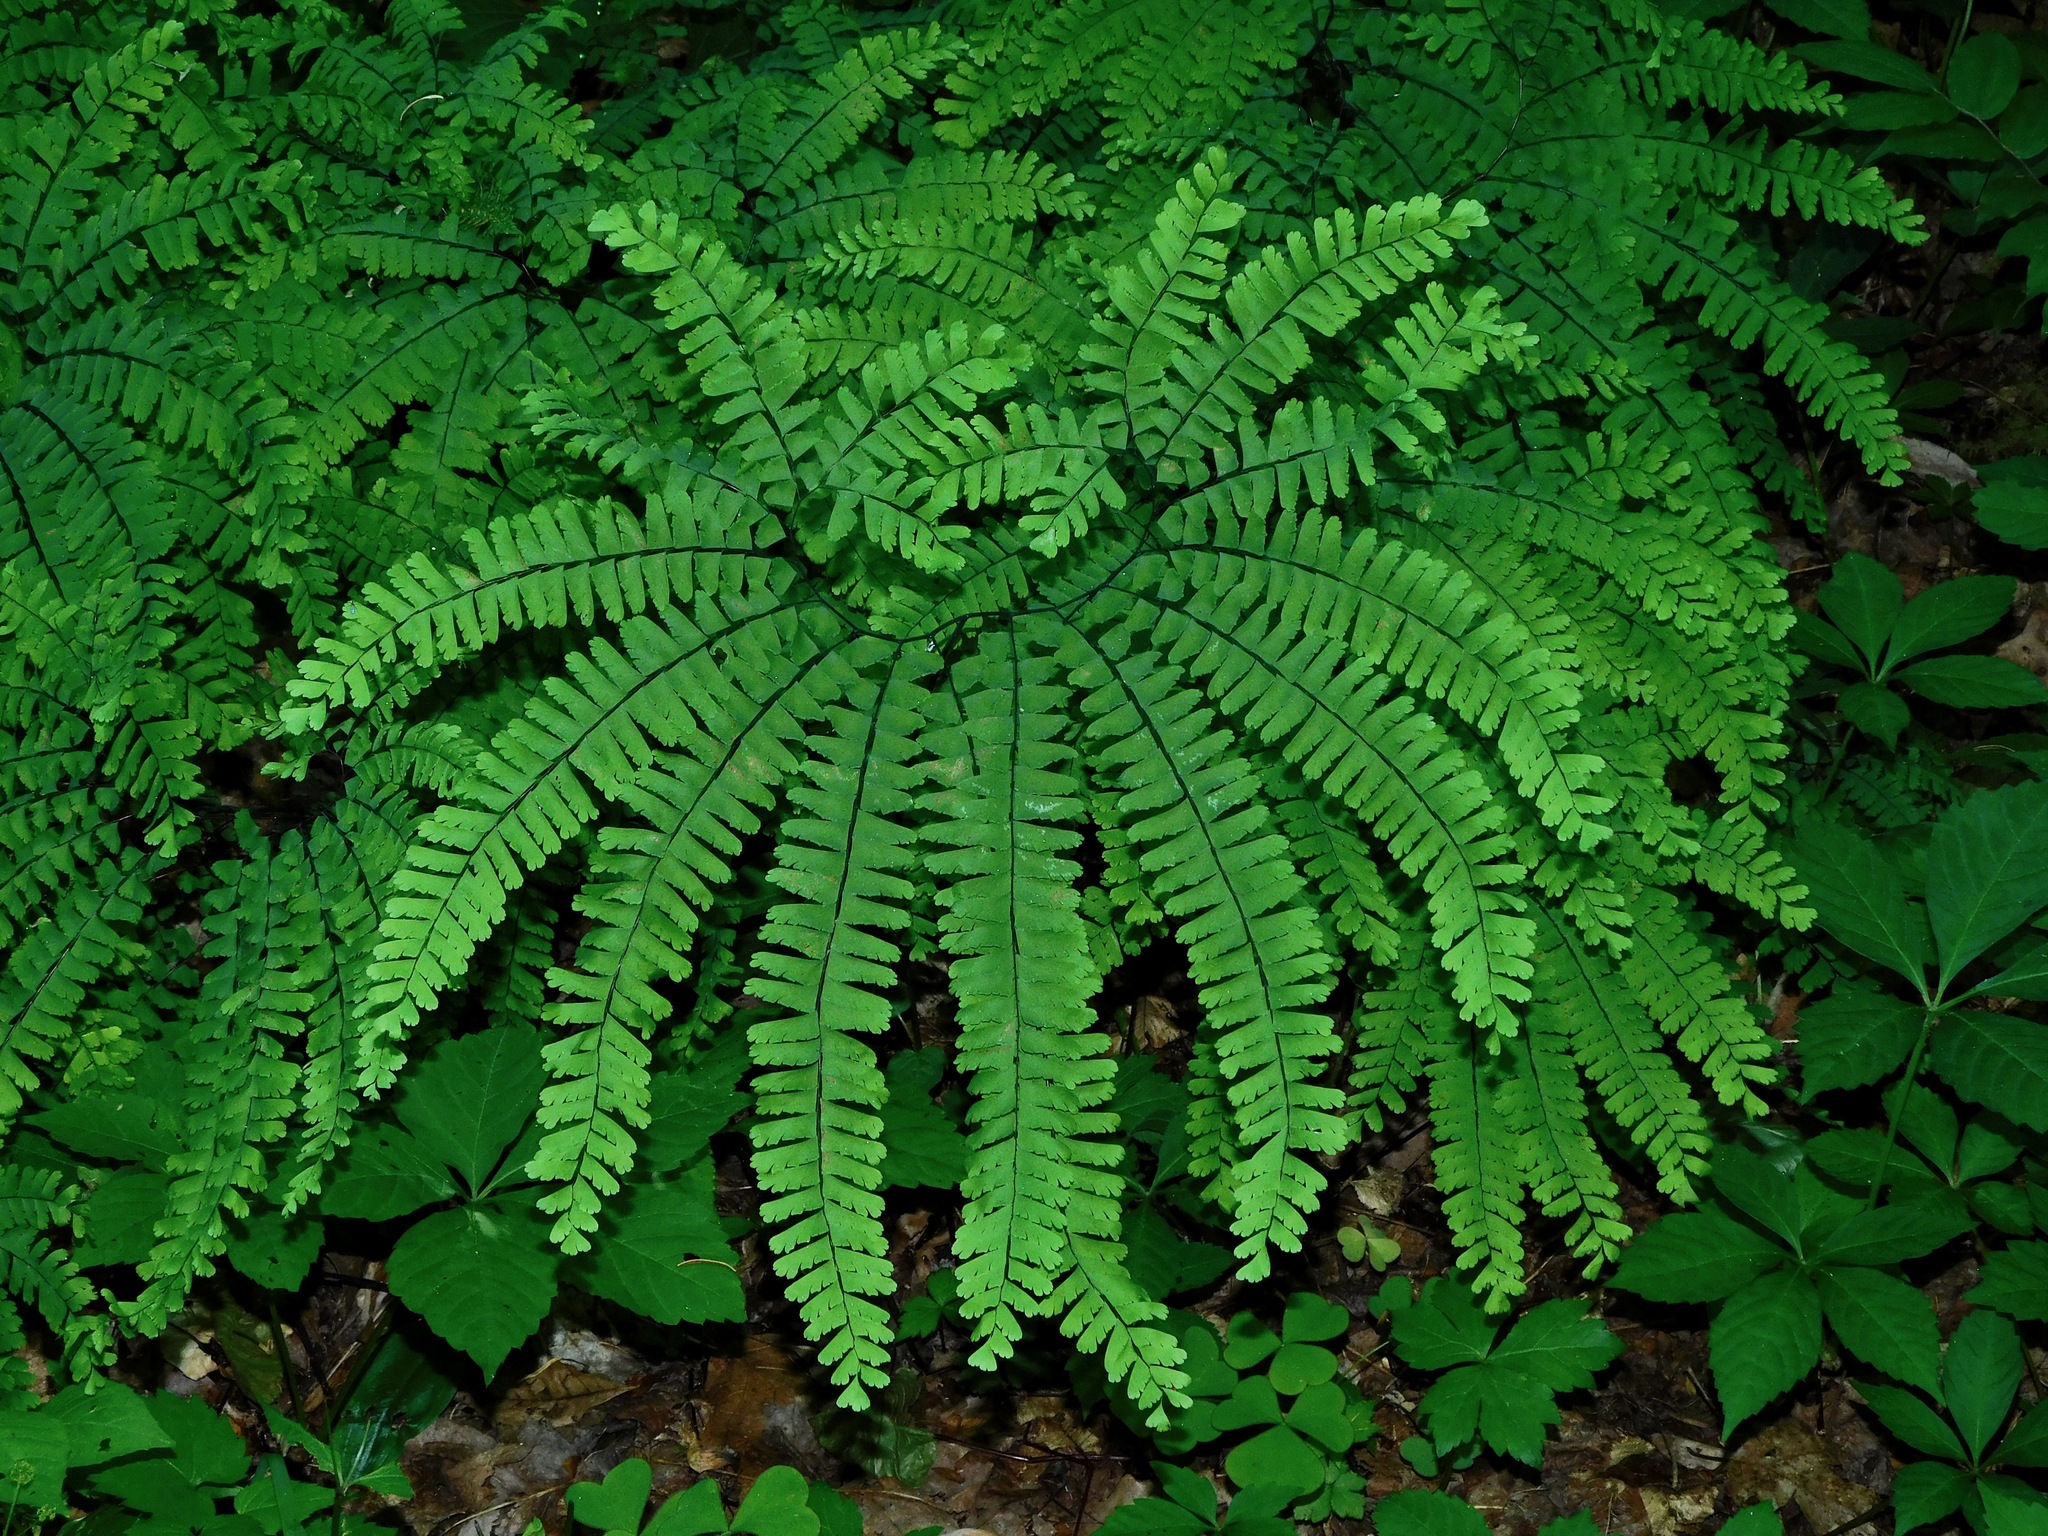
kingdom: Plantae
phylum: Tracheophyta
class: Polypodiopsida
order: Polypodiales
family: Pteridaceae
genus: Adiantum
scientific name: Adiantum pedatum
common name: Five-finger fern
